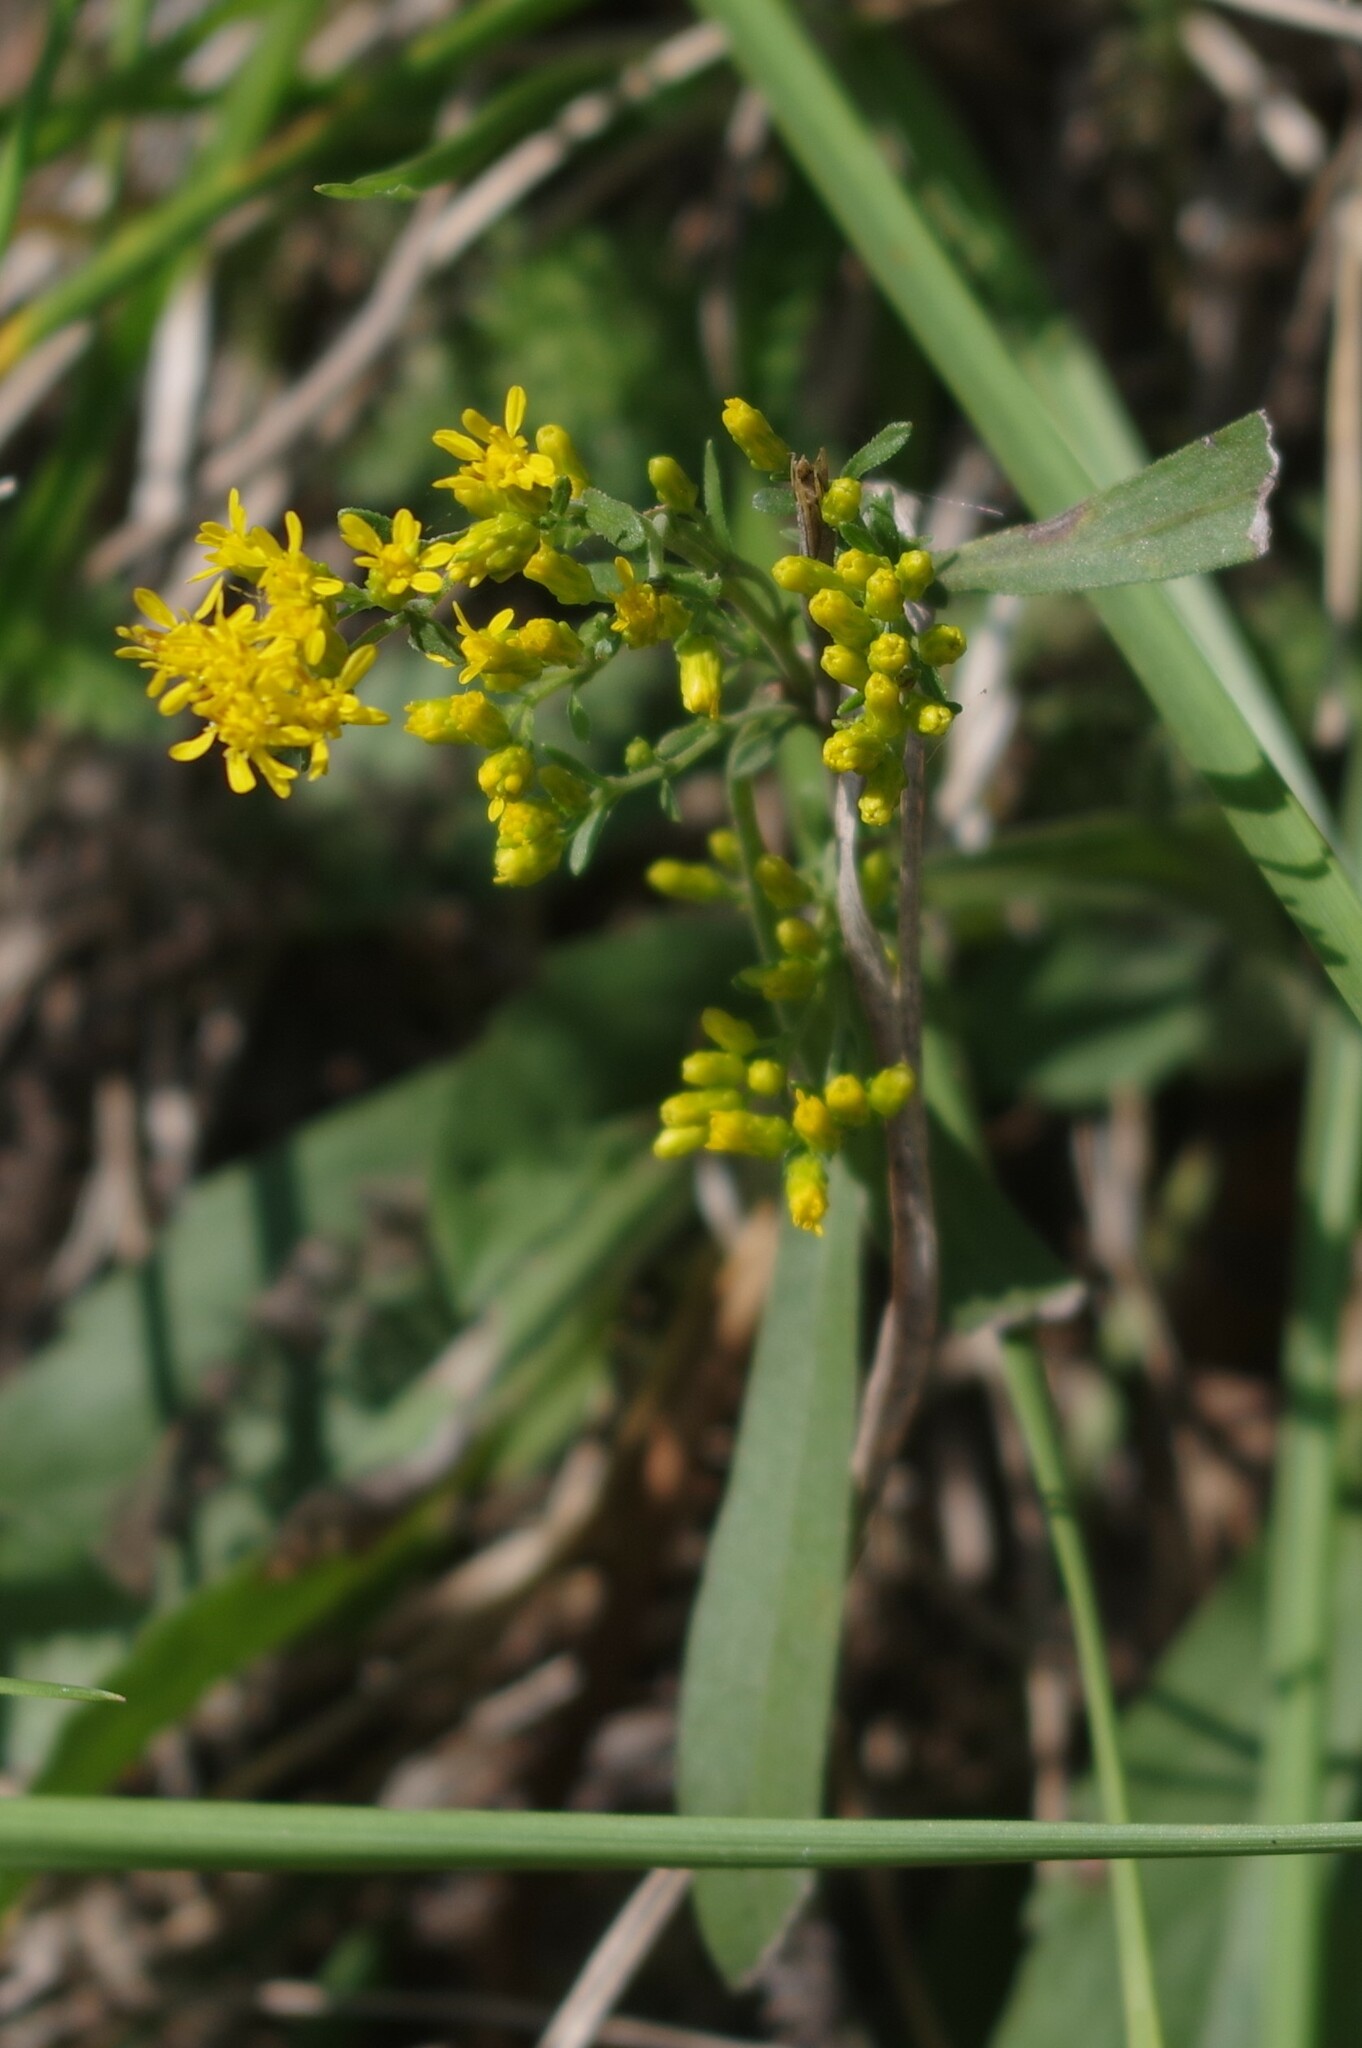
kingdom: Plantae
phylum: Tracheophyta
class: Magnoliopsida
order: Asterales
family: Asteraceae
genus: Solidago
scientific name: Solidago nemoralis
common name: Grey goldenrod
